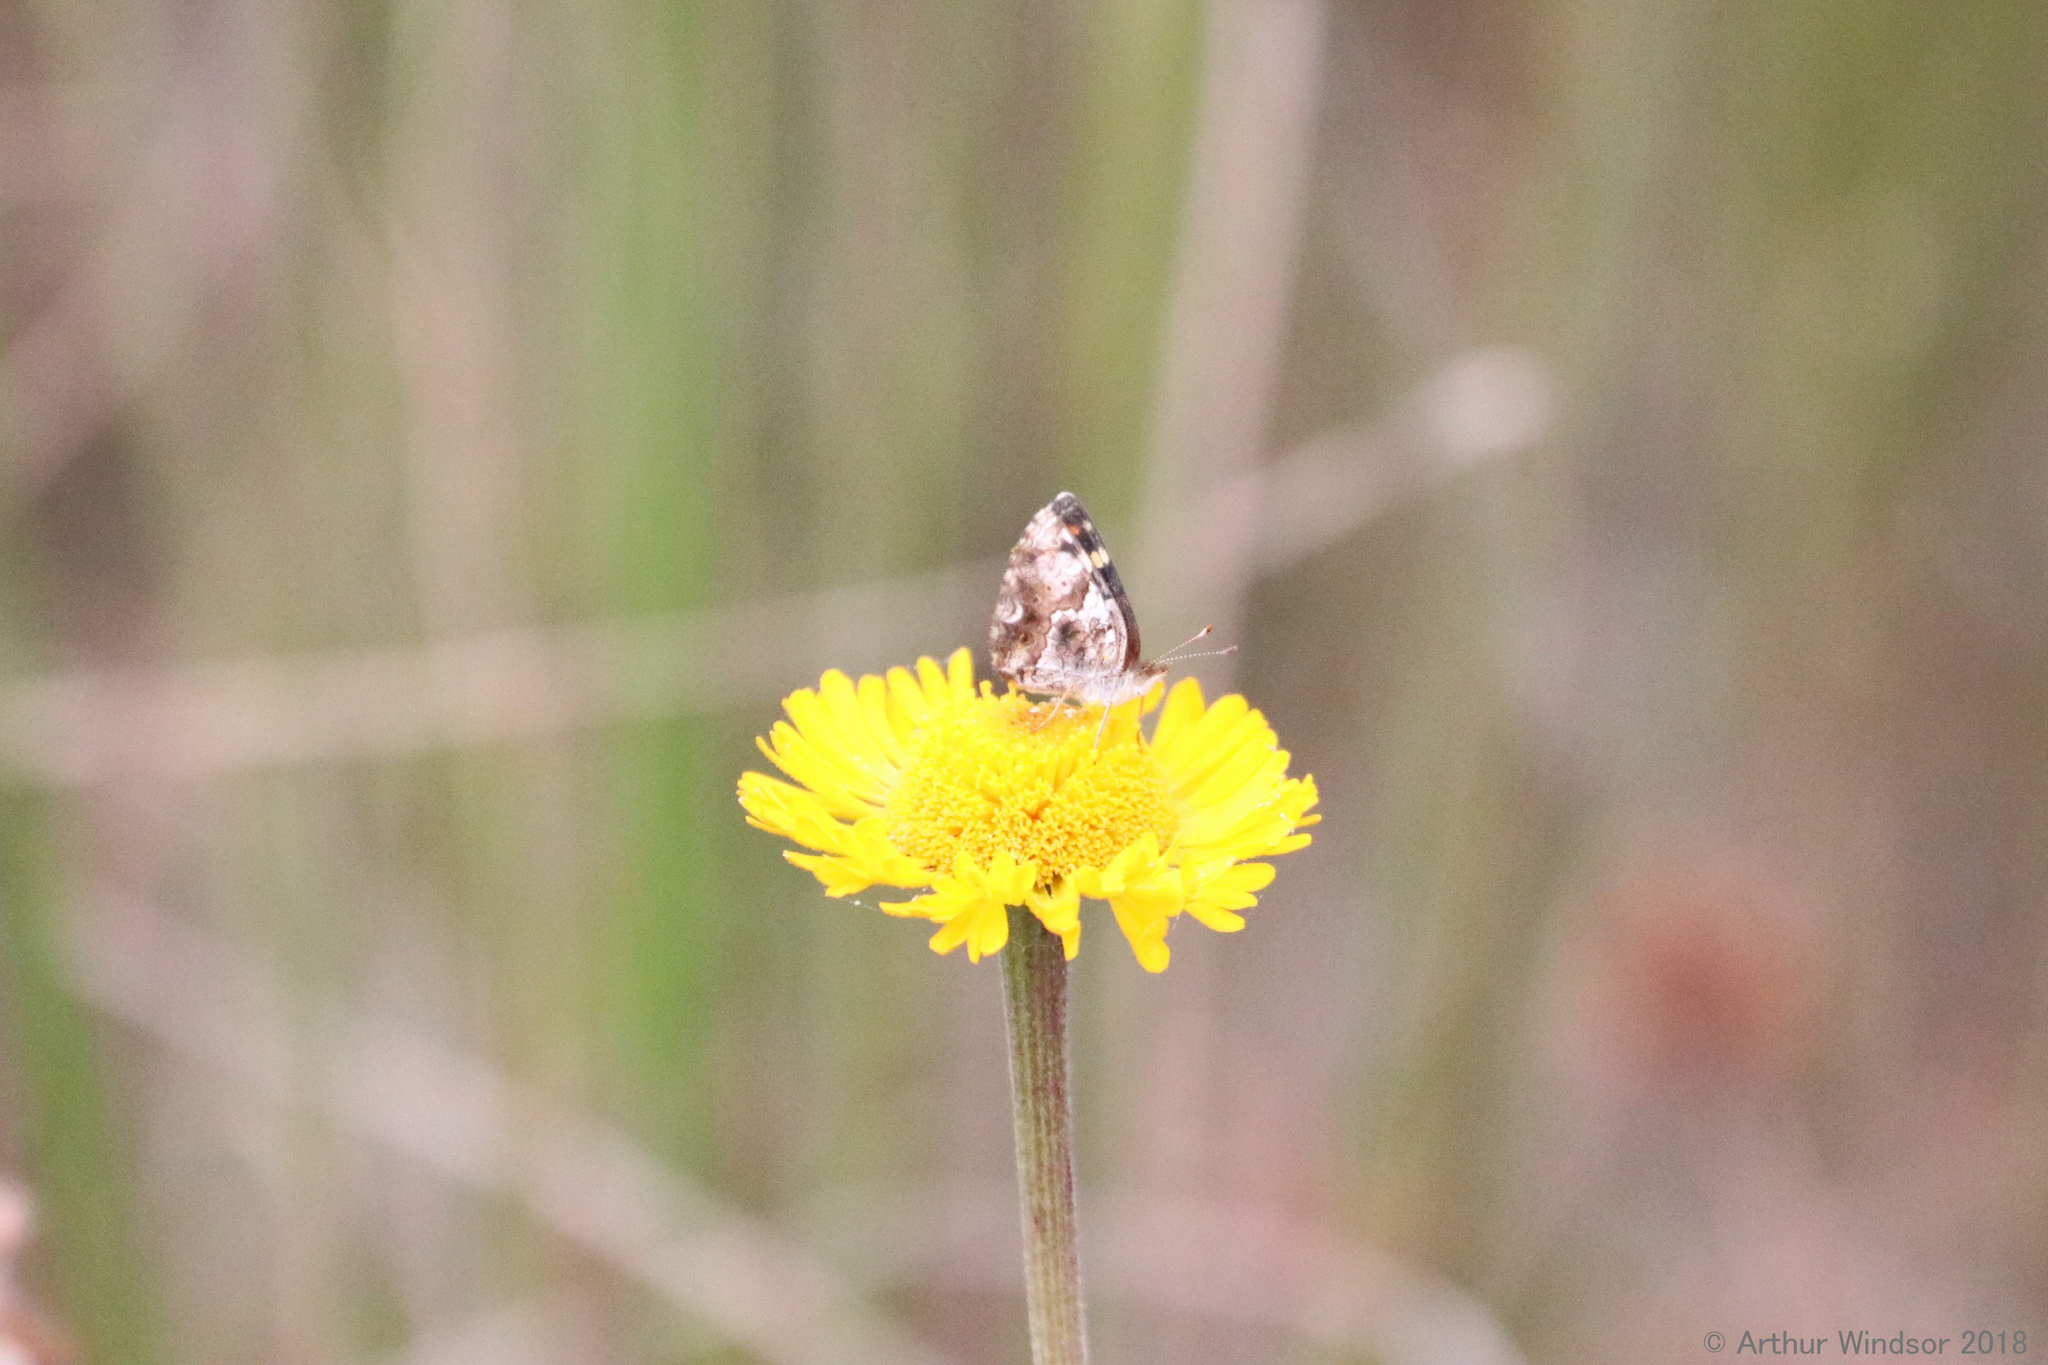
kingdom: Animalia
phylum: Arthropoda
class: Insecta
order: Lepidoptera
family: Nymphalidae
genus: Phyciodes
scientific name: Phyciodes phaon
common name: Phaon crescent
